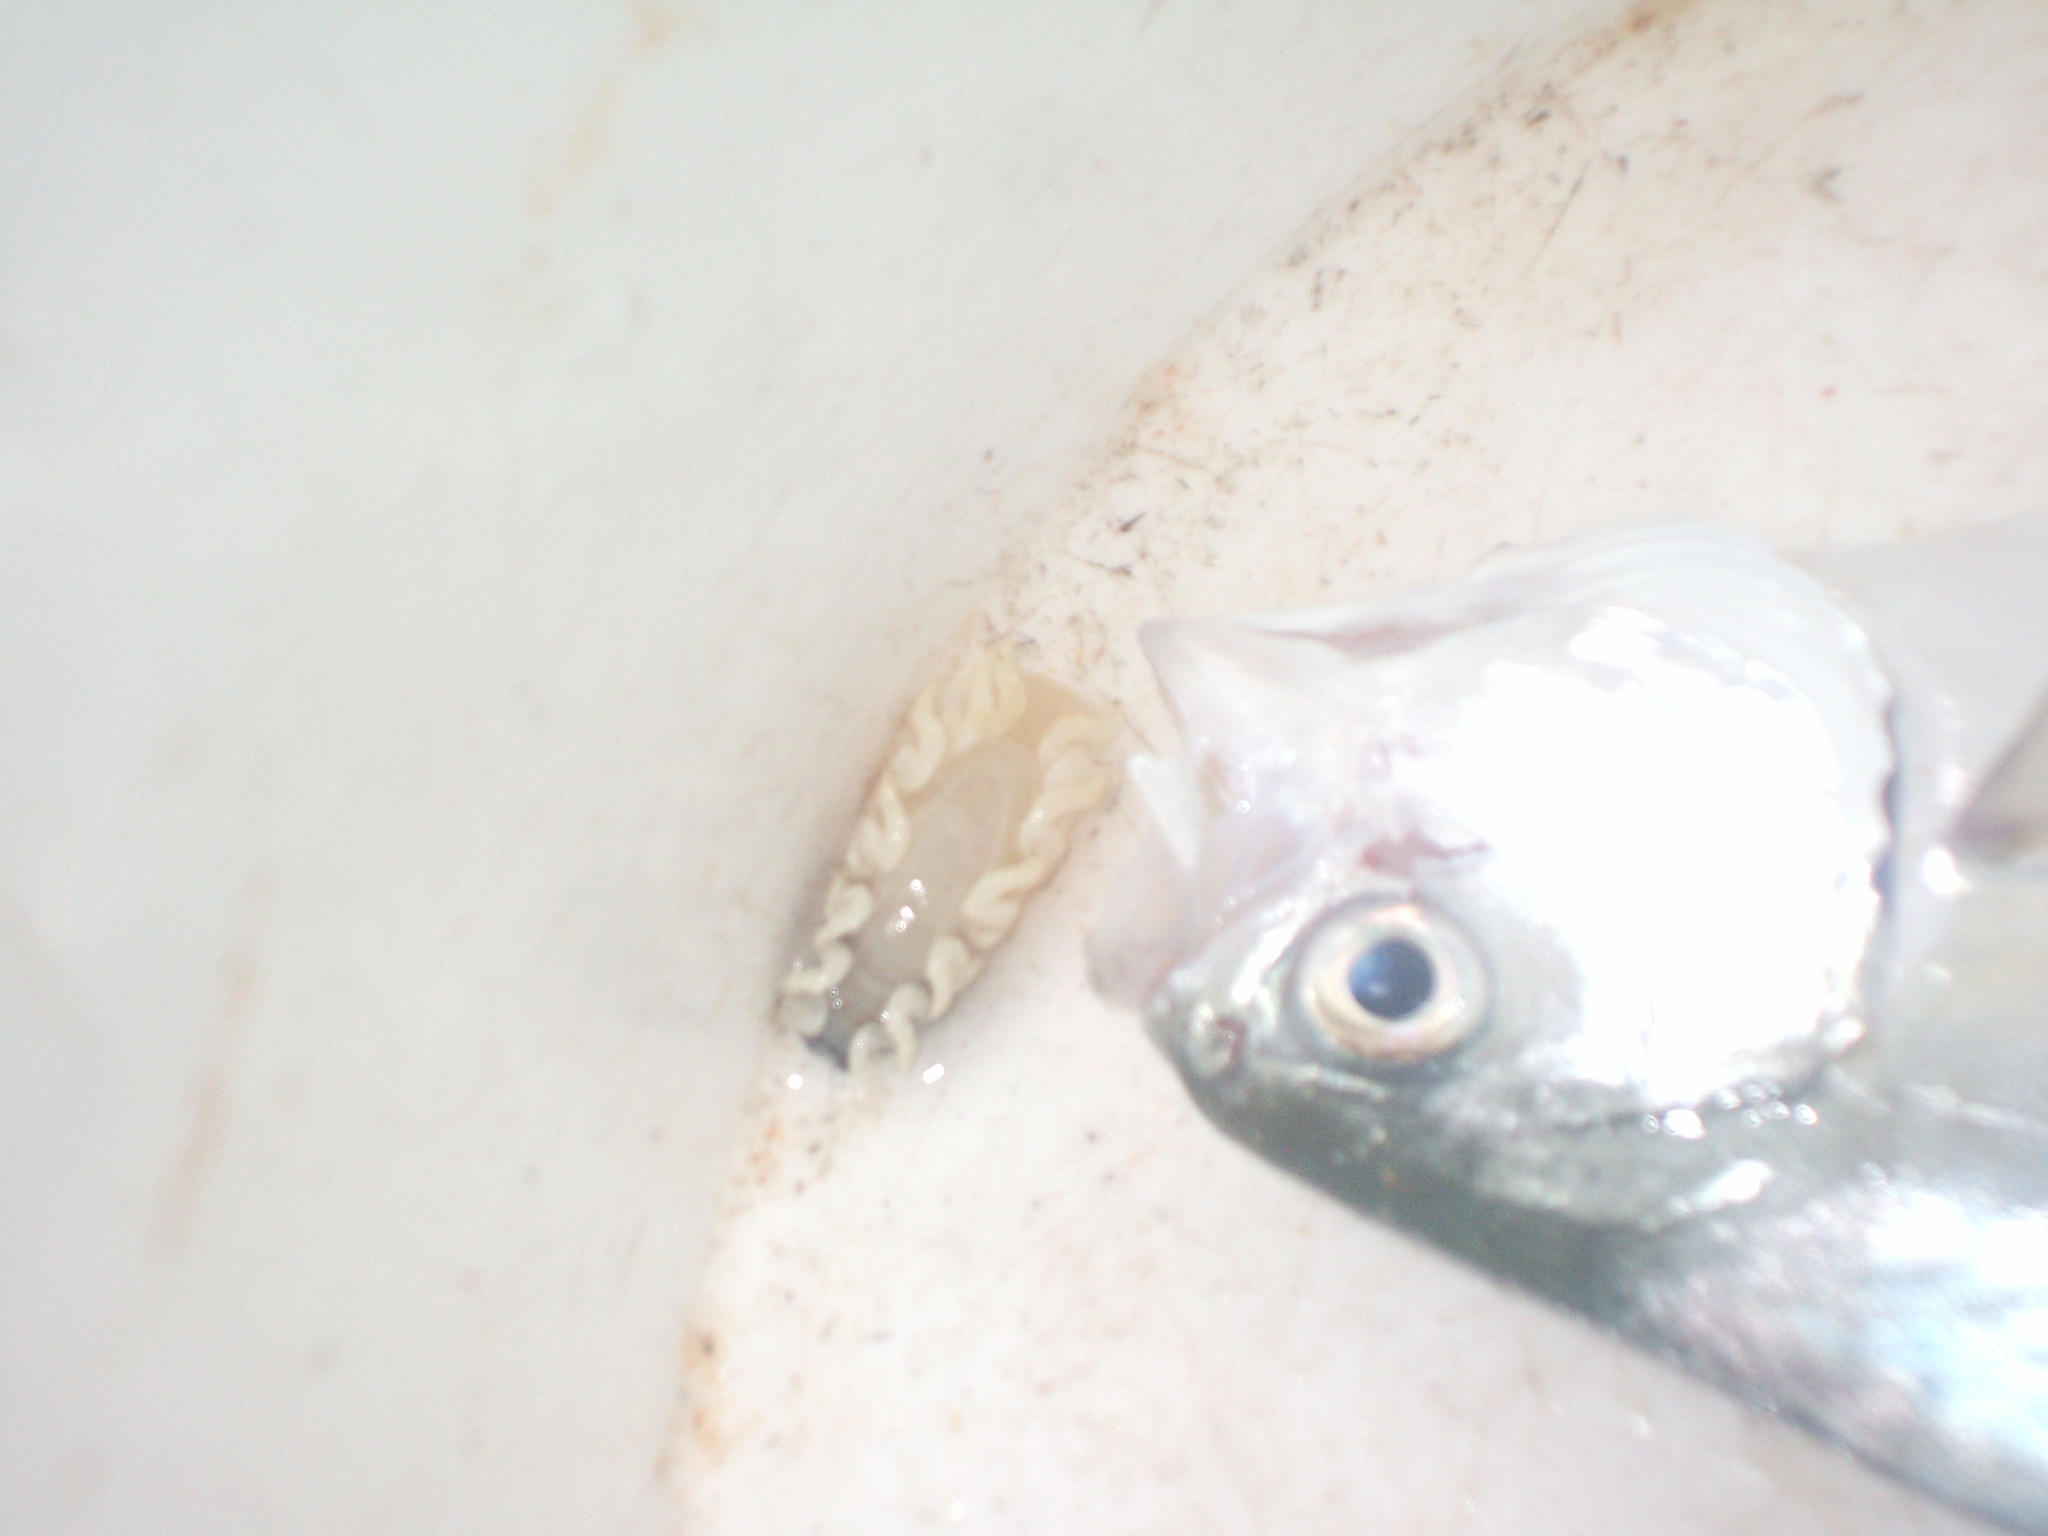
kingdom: Animalia
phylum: Chordata
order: Perciformes
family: Carangidae
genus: Trachinotus
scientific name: Trachinotus coppingeri
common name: Swallowtail dart
